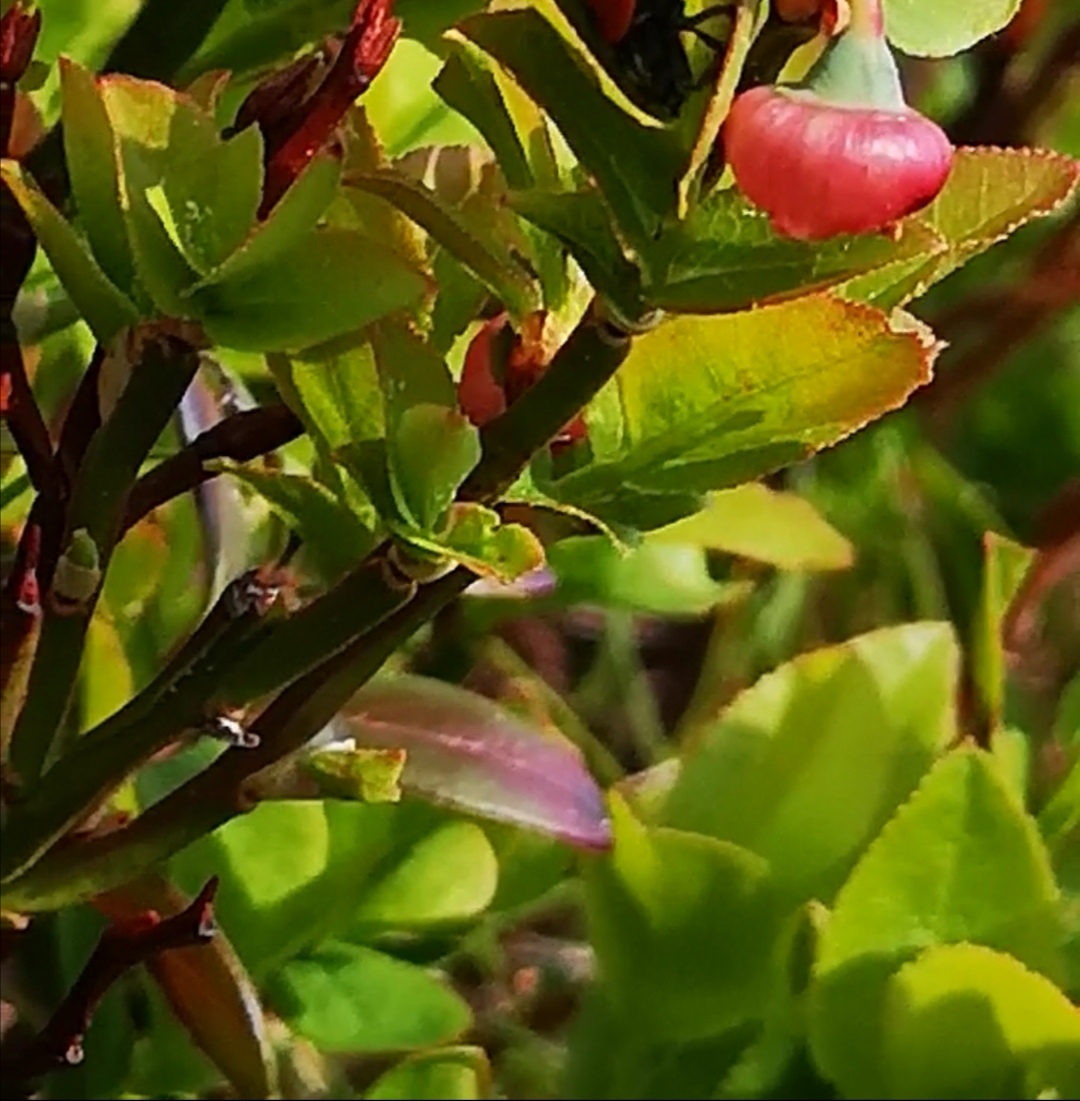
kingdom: Plantae
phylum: Tracheophyta
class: Magnoliopsida
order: Ericales
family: Ericaceae
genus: Vaccinium
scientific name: Vaccinium myrtillus
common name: Bilberry
